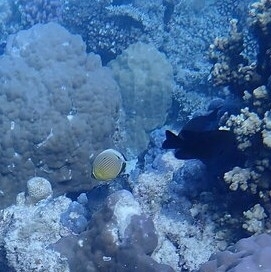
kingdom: Animalia
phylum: Chordata
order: Perciformes
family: Chaetodontidae
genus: Chaetodon
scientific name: Chaetodon lunulatus
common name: Redfin butterflyfish
